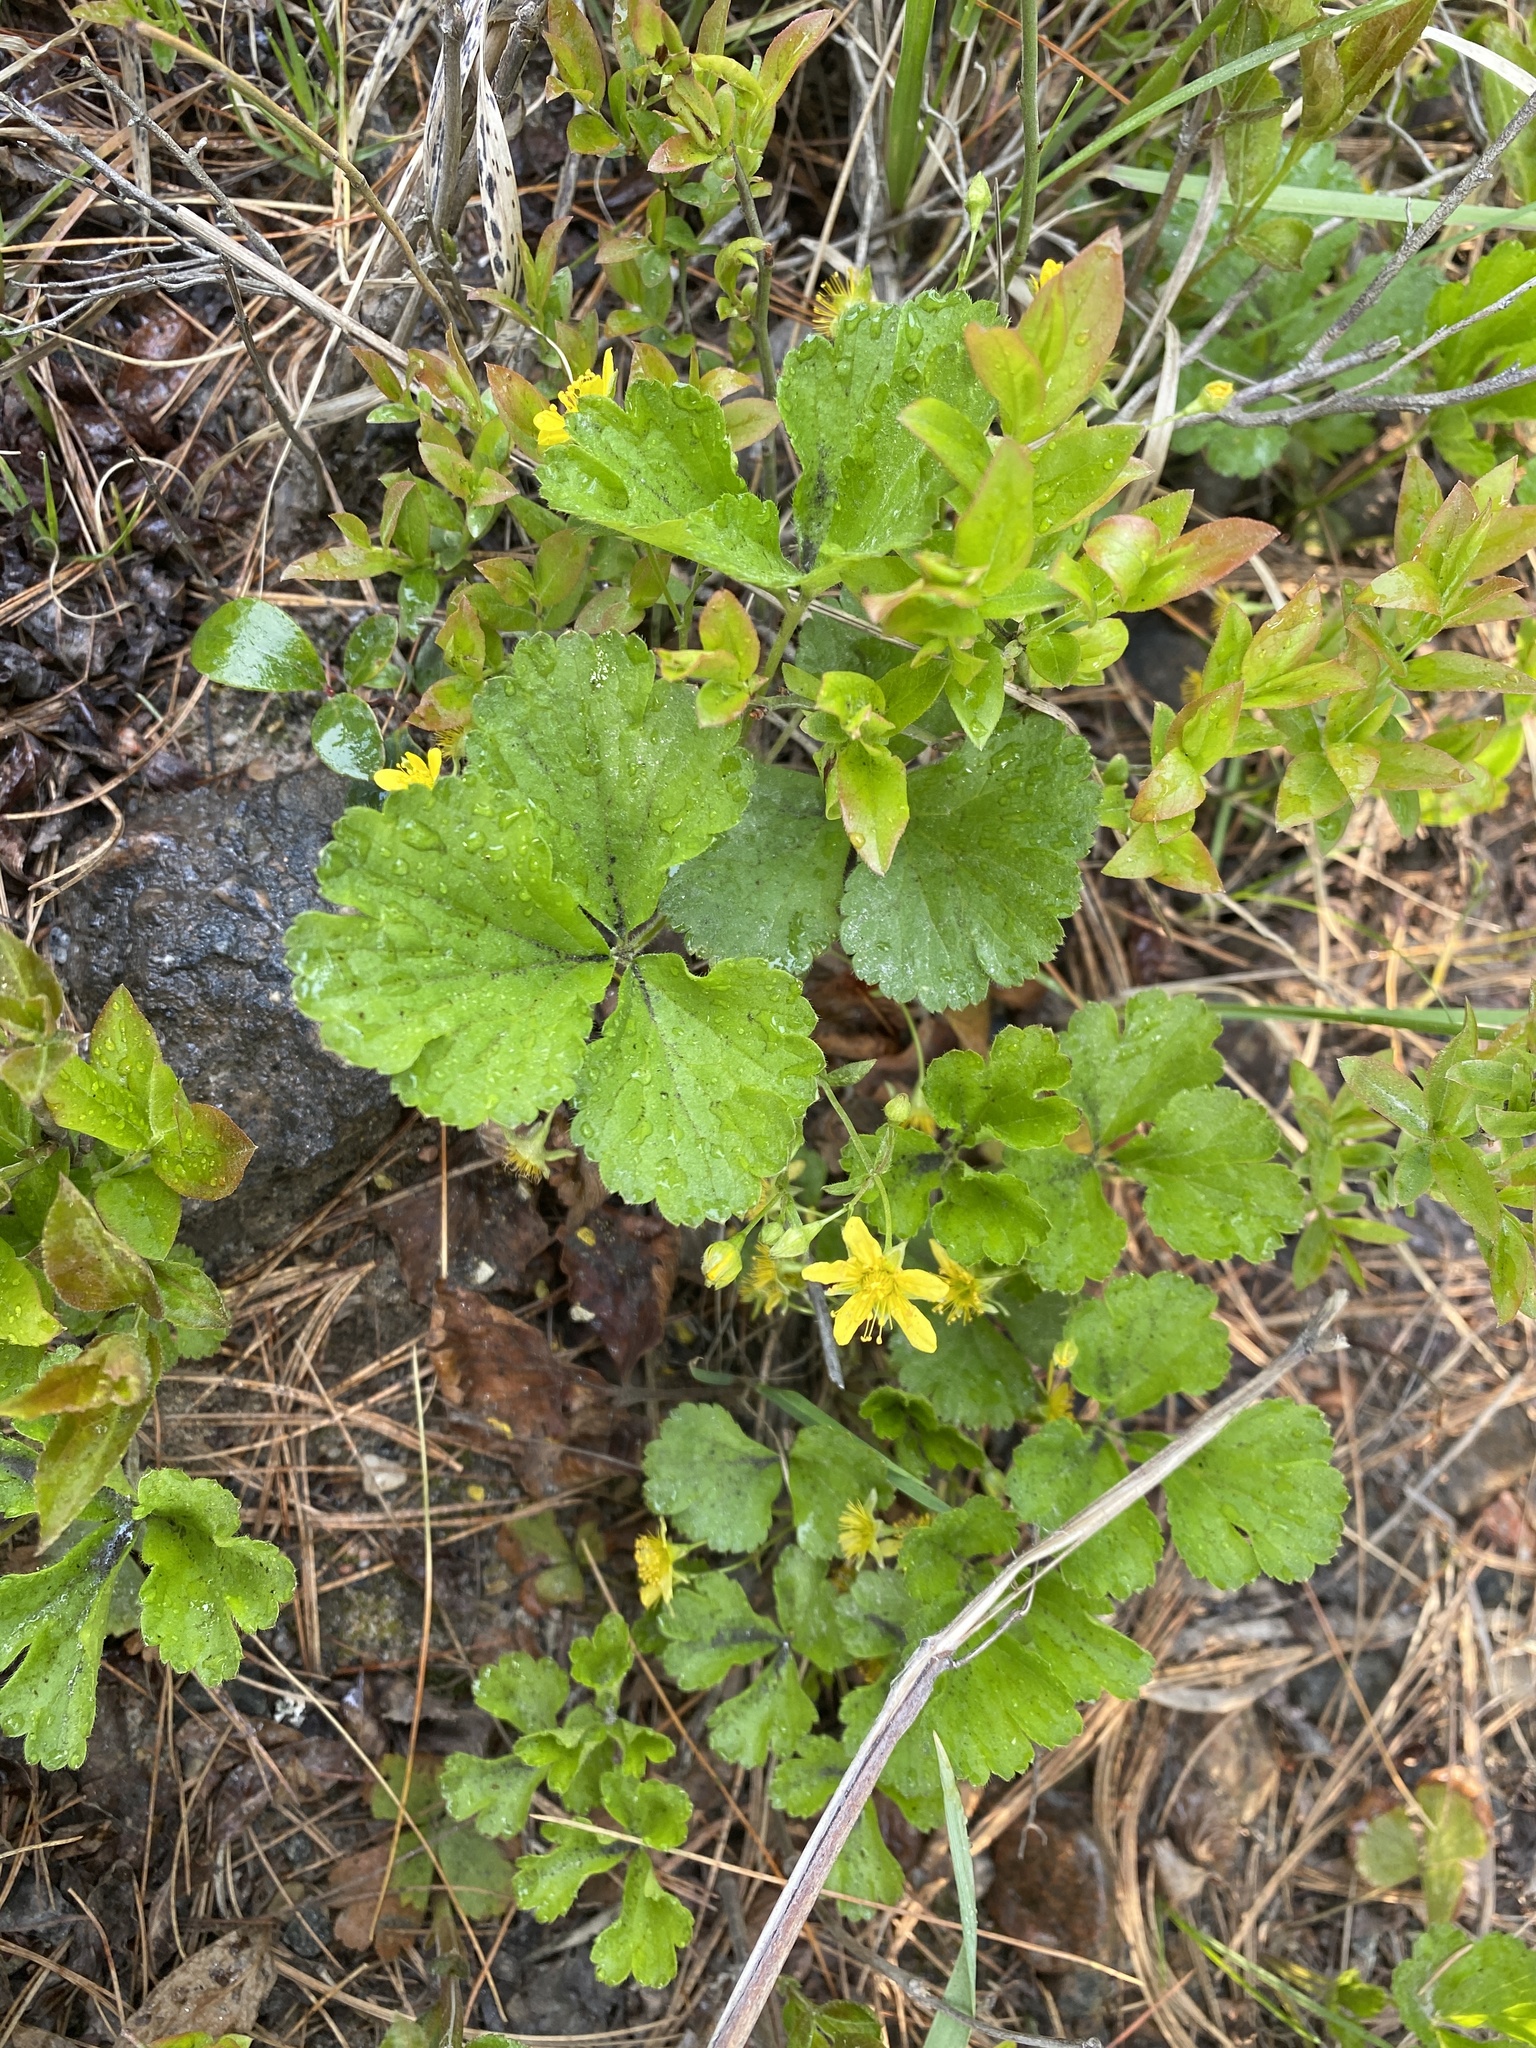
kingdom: Plantae
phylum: Tracheophyta
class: Magnoliopsida
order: Rosales
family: Rosaceae
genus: Geum
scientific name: Geum fragarioides
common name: Appalachian barren strawberry
